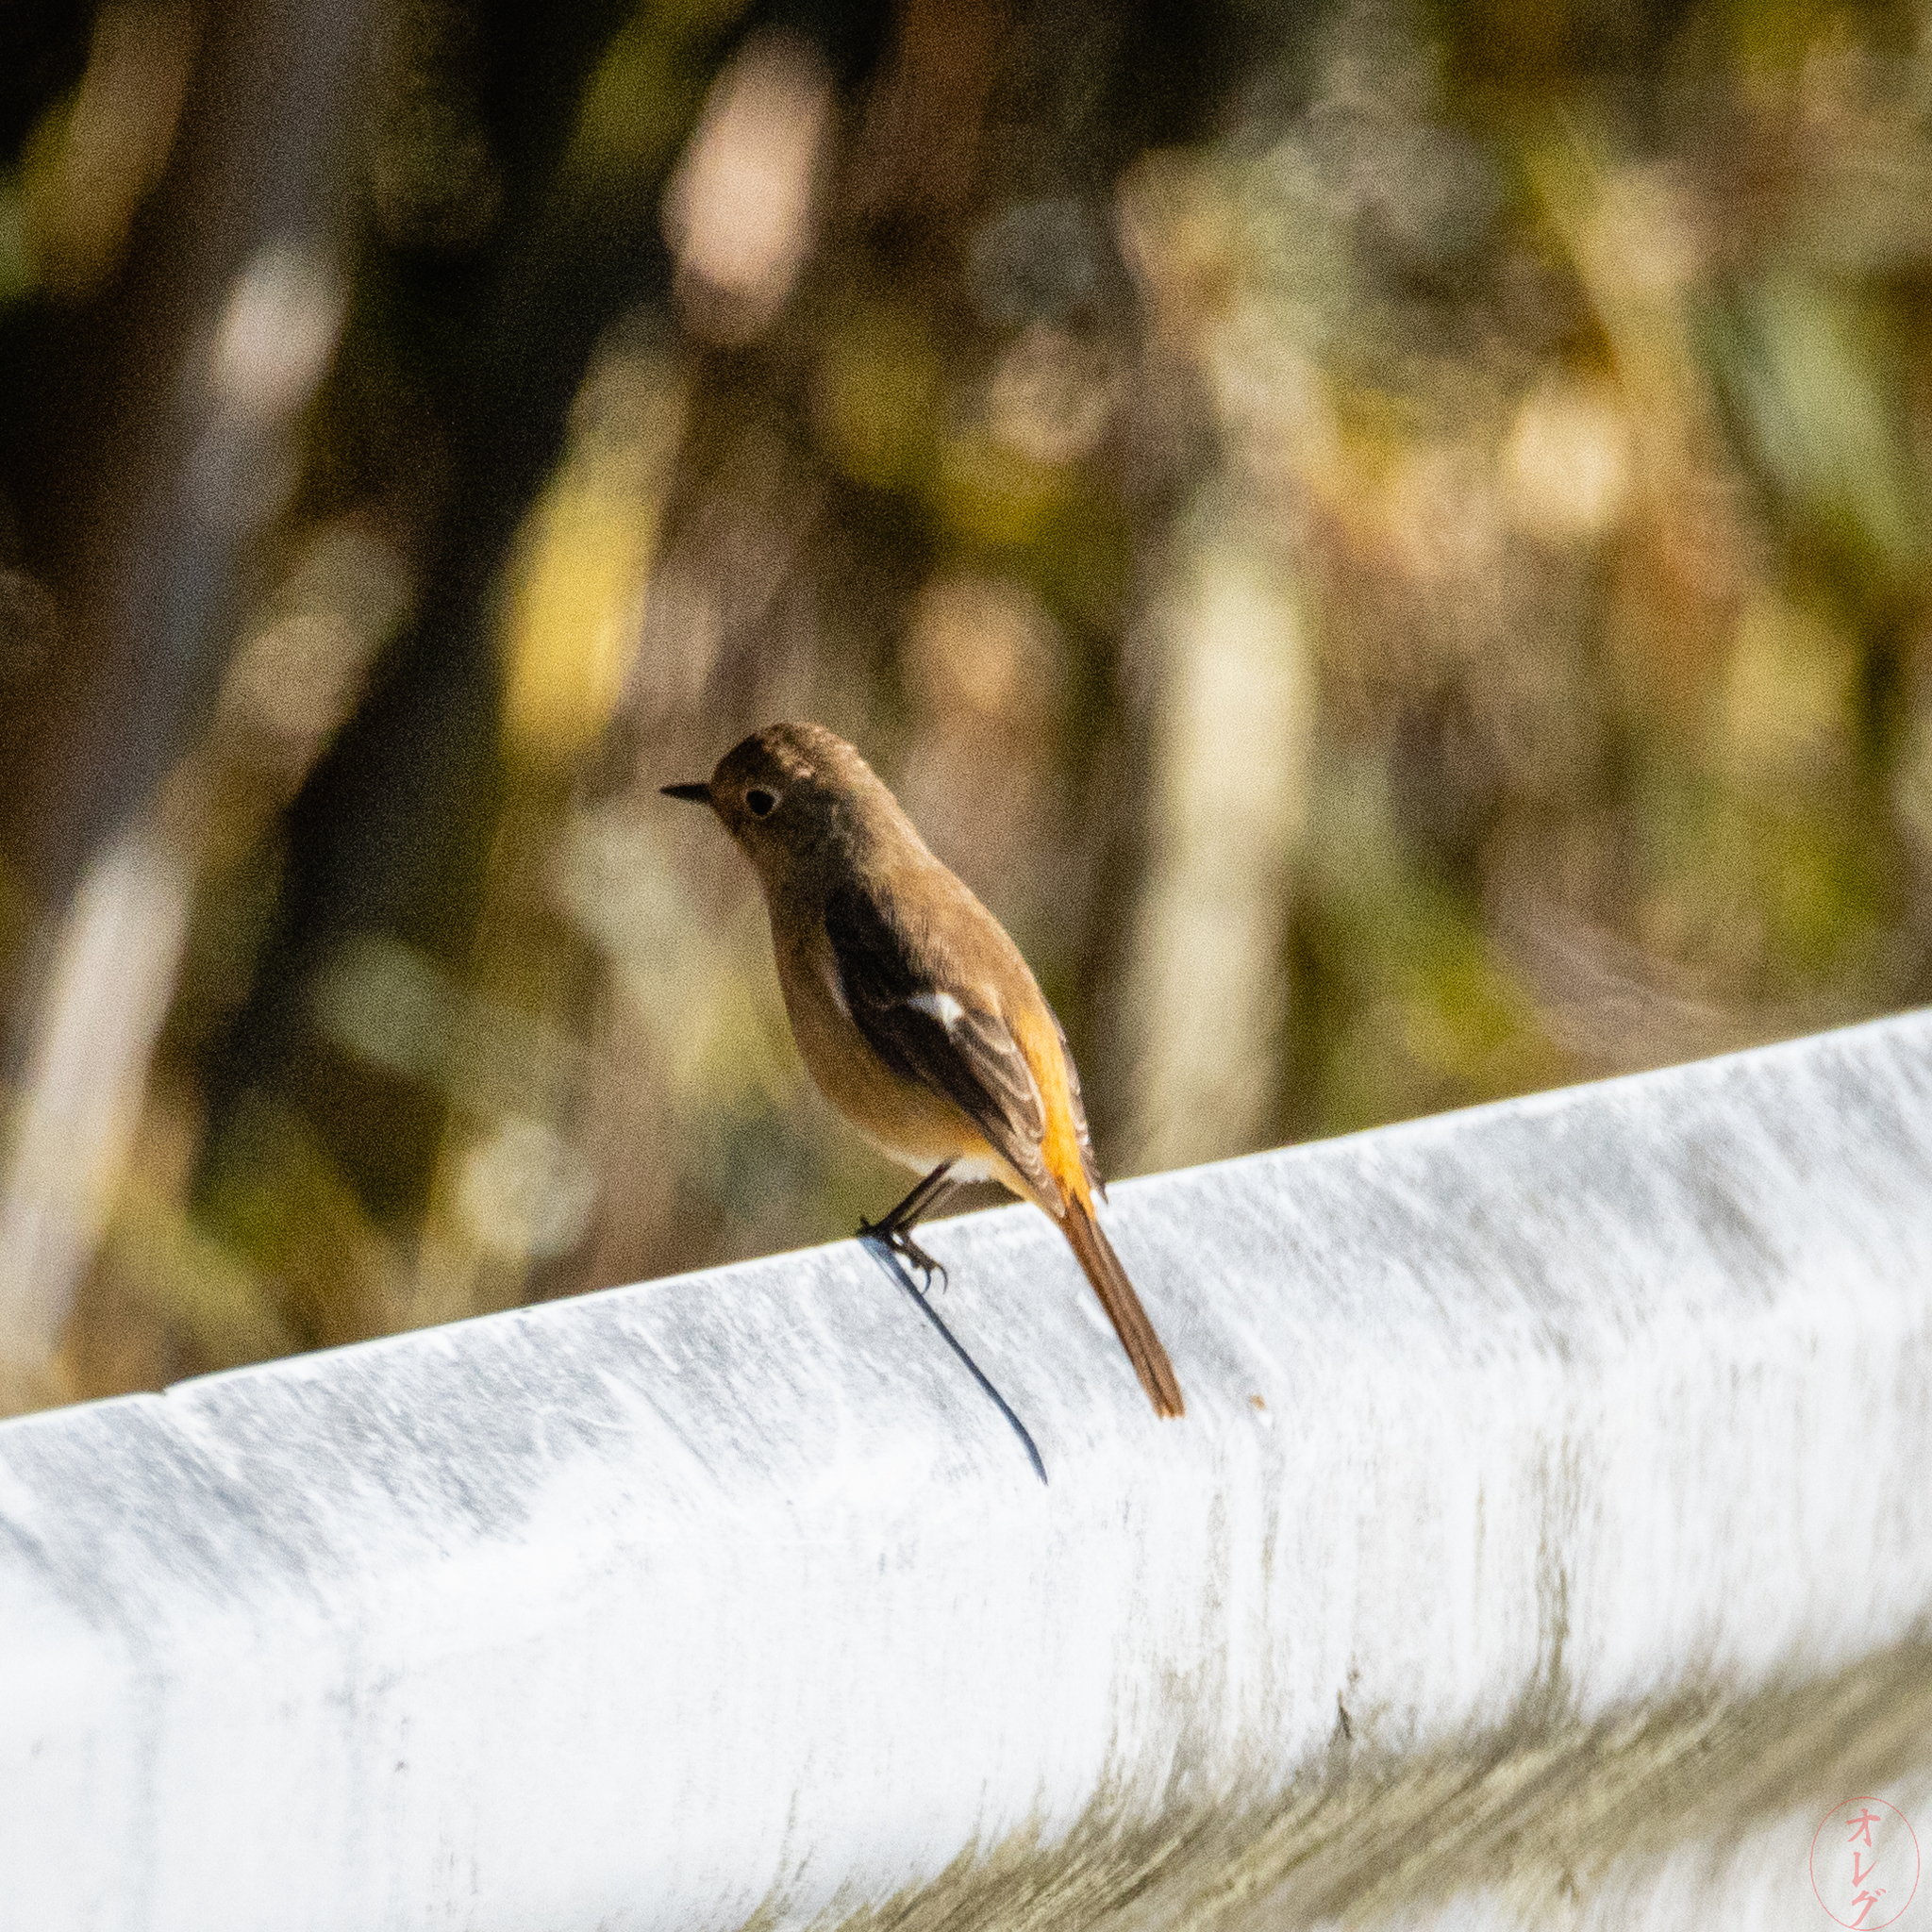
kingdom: Animalia
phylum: Chordata
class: Aves
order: Passeriformes
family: Muscicapidae
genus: Phoenicurus
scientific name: Phoenicurus auroreus
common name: Daurian redstart
